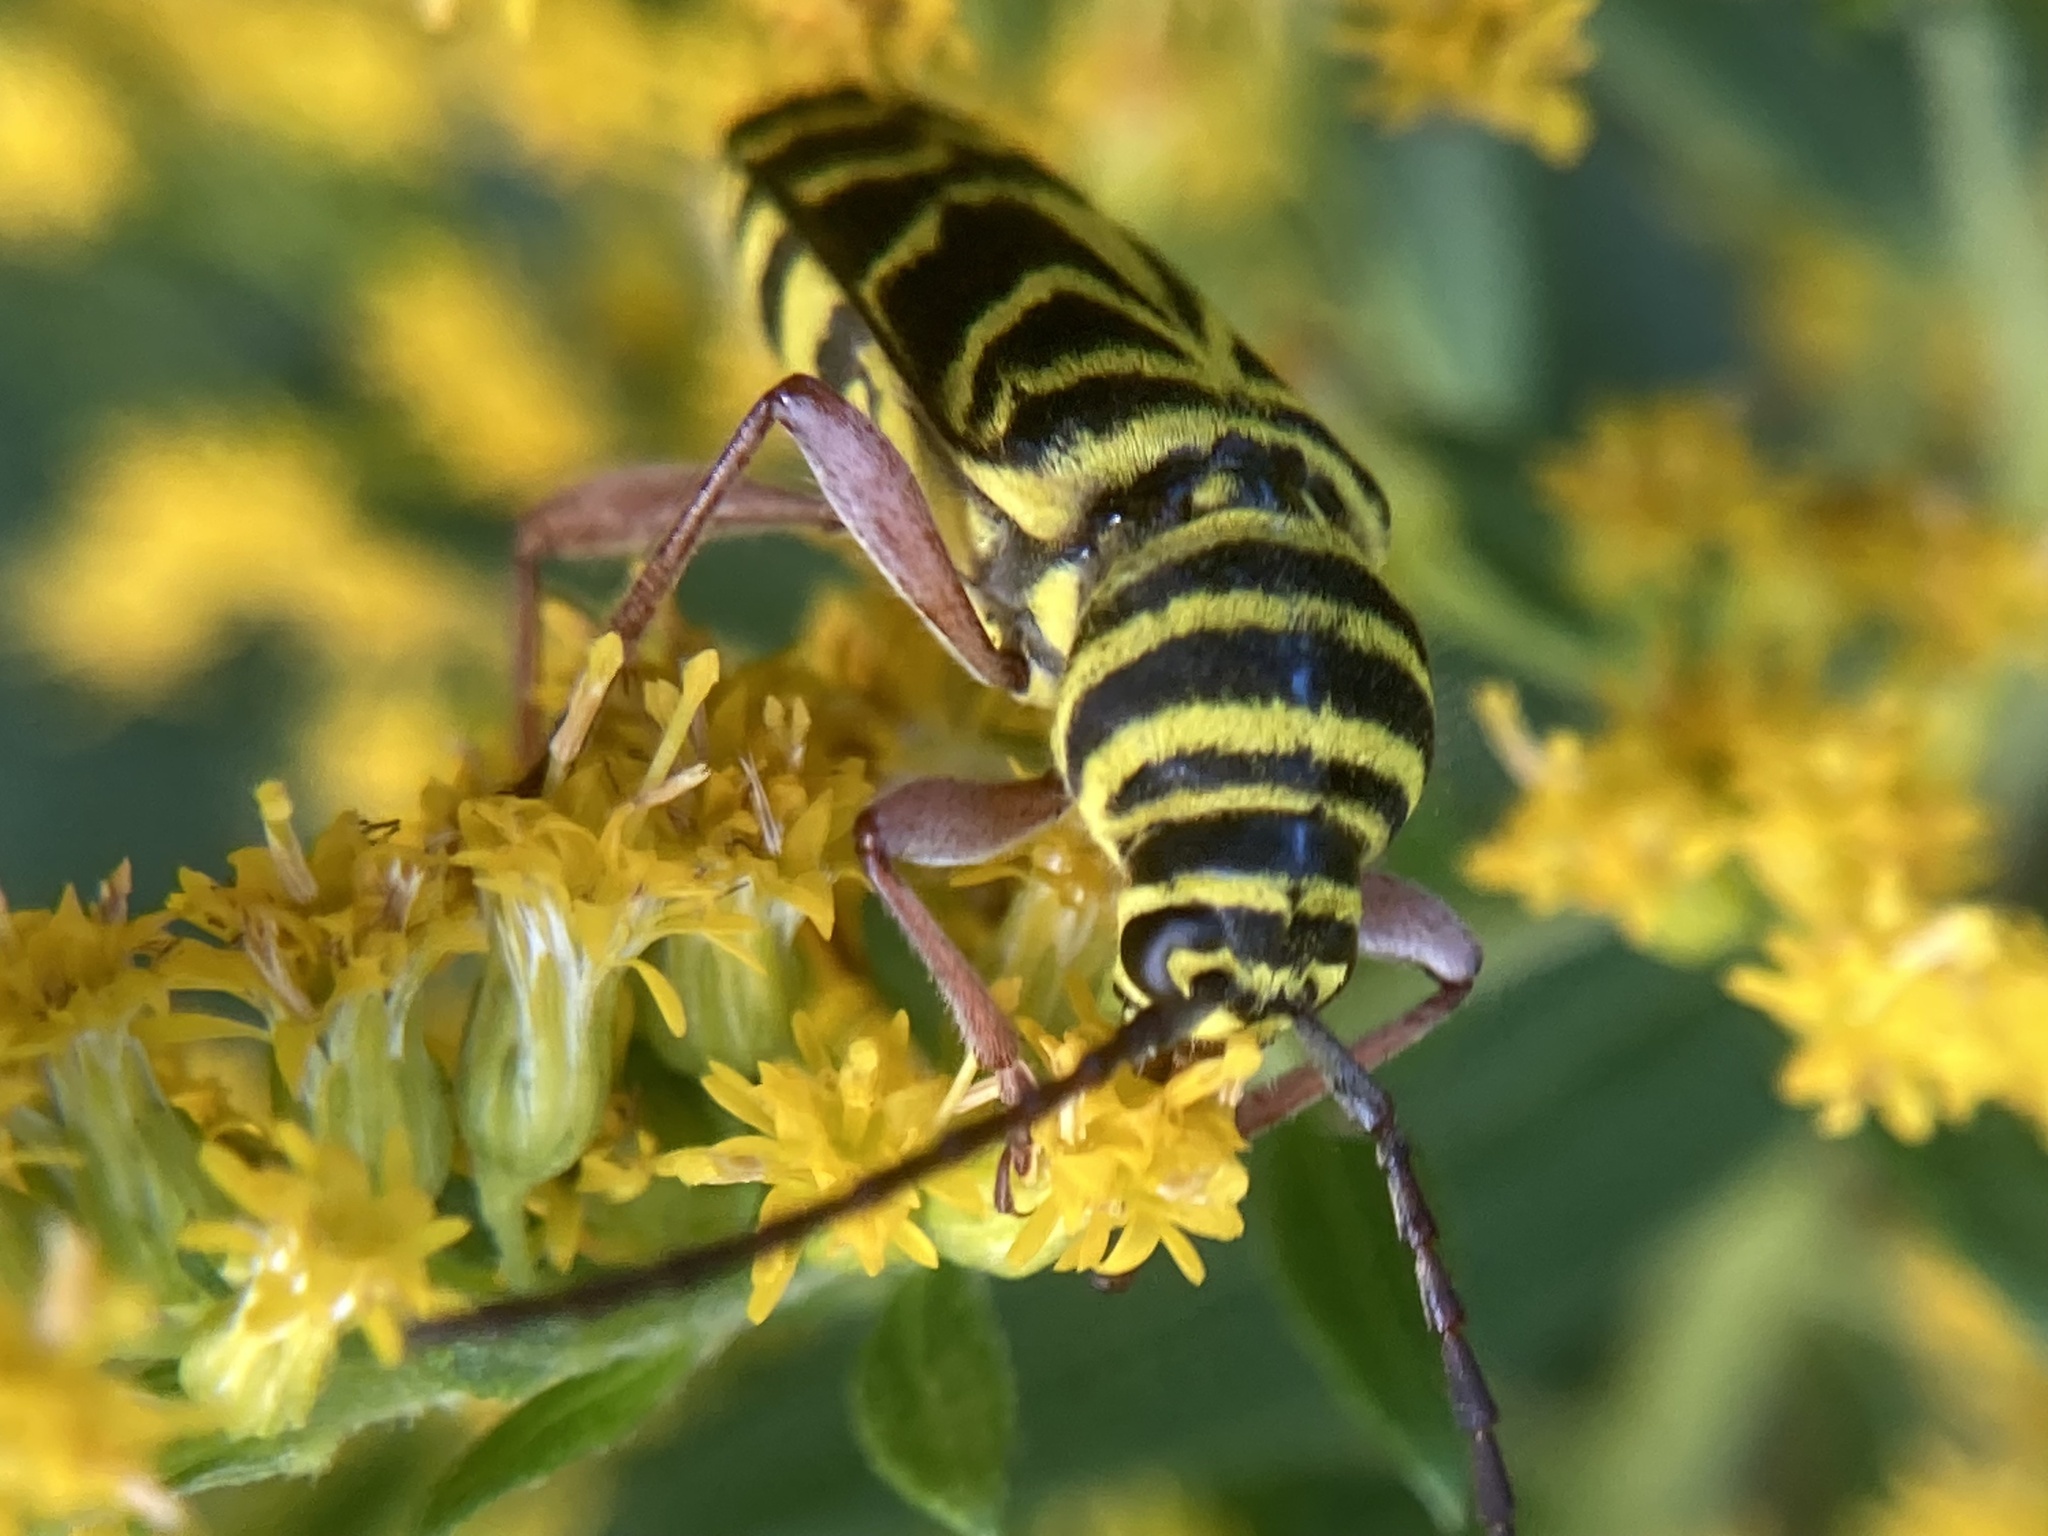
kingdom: Animalia
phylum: Arthropoda
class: Insecta
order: Coleoptera
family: Cerambycidae
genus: Megacyllene
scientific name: Megacyllene robiniae
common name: Locust borer
